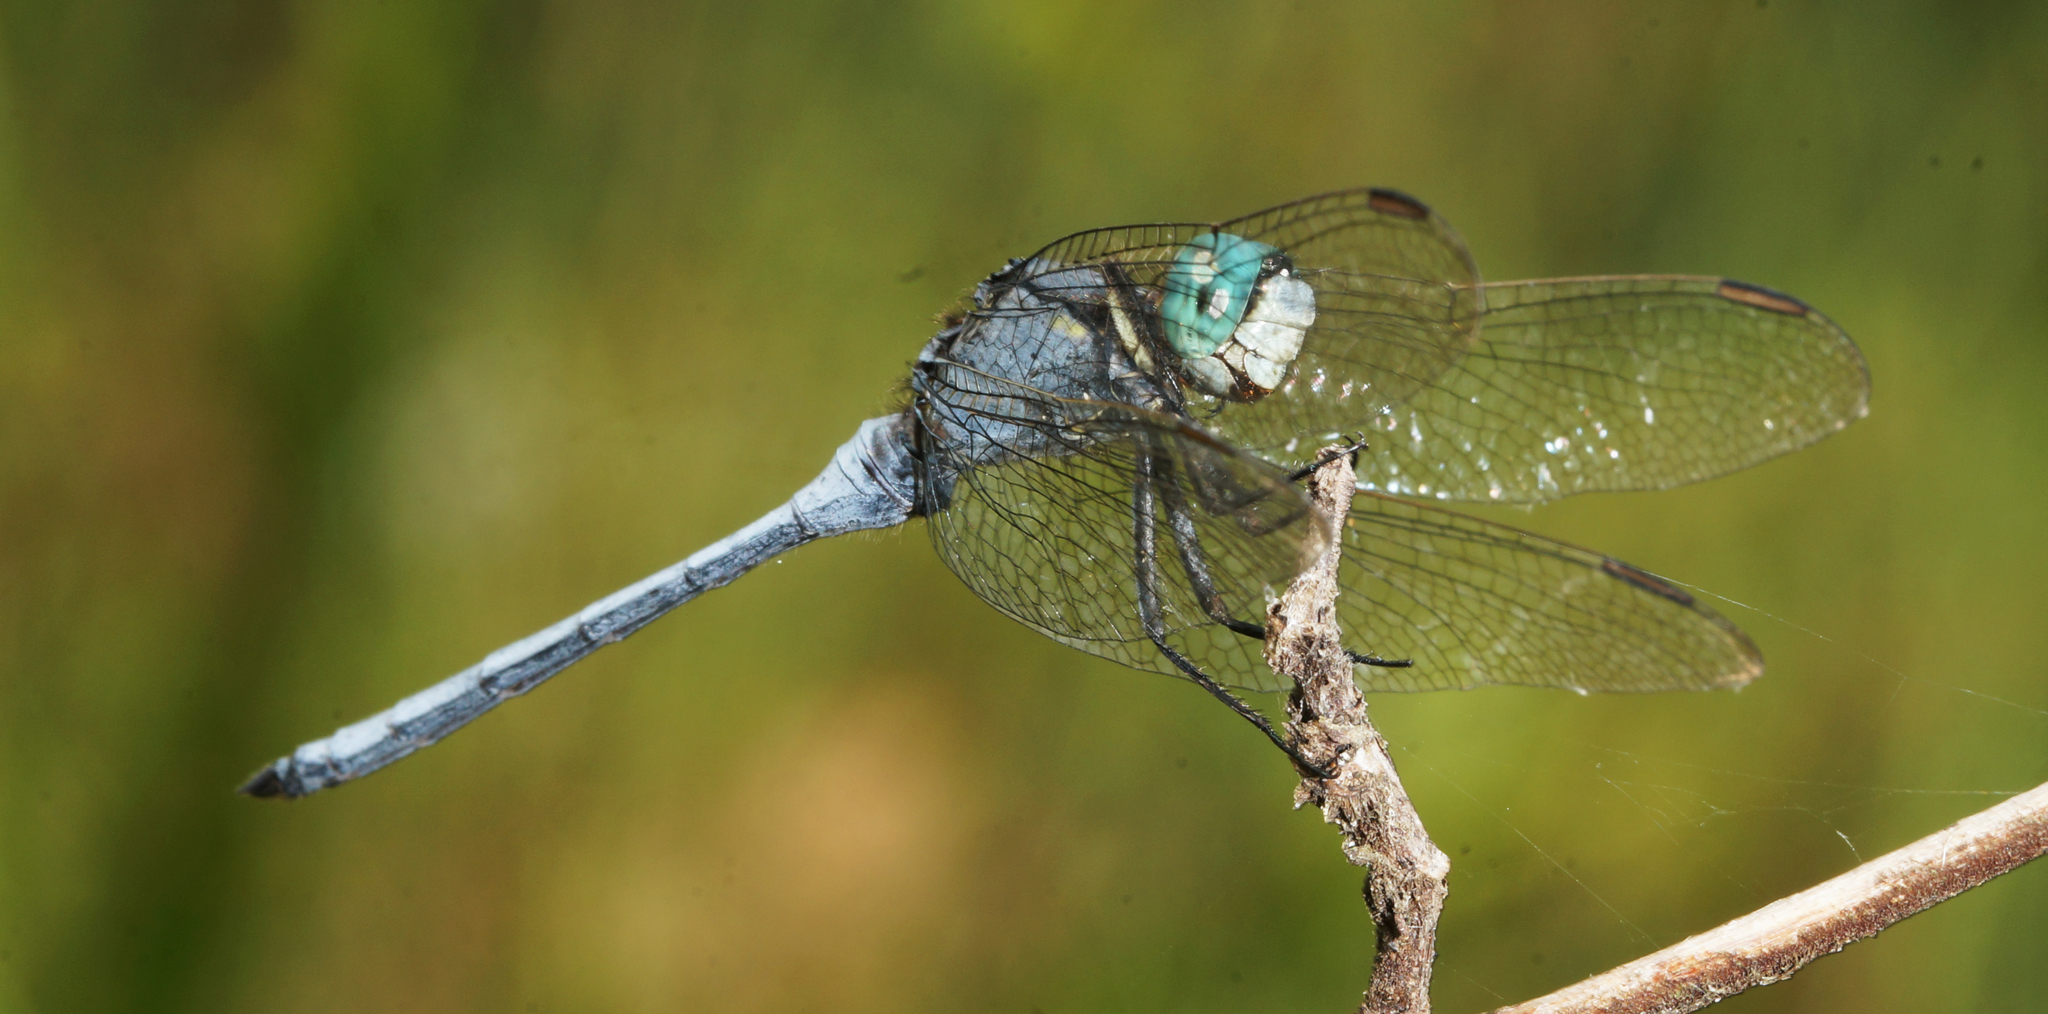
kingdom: Animalia
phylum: Arthropoda
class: Insecta
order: Odonata
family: Libellulidae
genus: Orthetrum
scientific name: Orthetrum luzonicum
